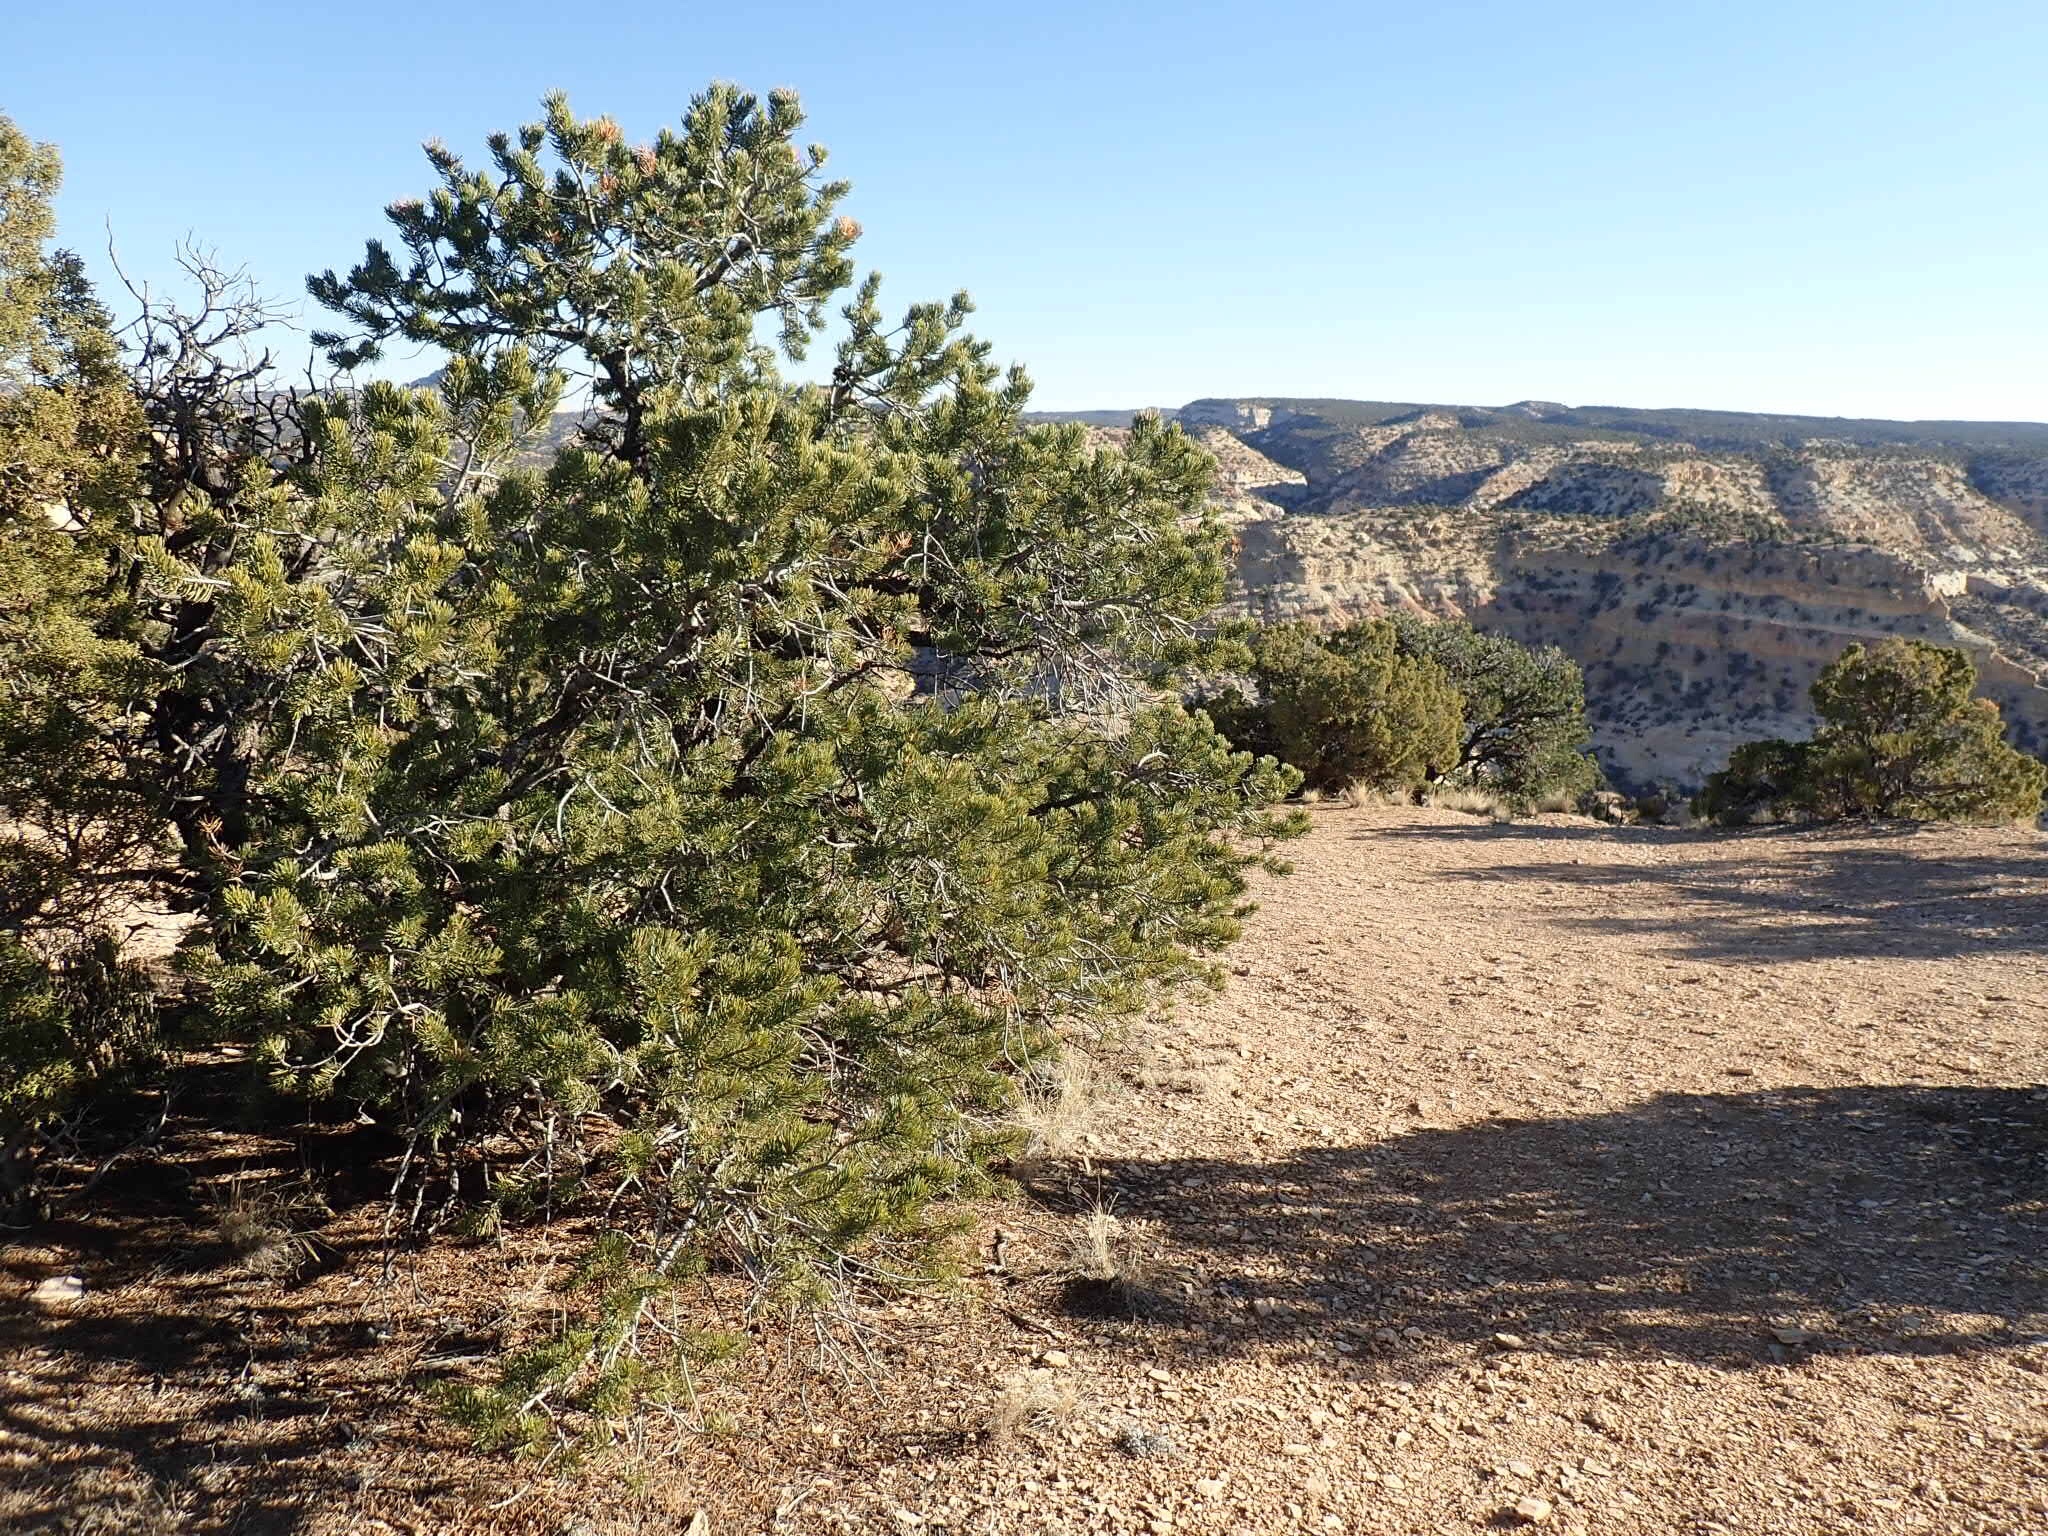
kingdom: Plantae
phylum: Tracheophyta
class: Pinopsida
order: Pinales
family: Pinaceae
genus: Pinus
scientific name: Pinus edulis
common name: Colorado pinyon
